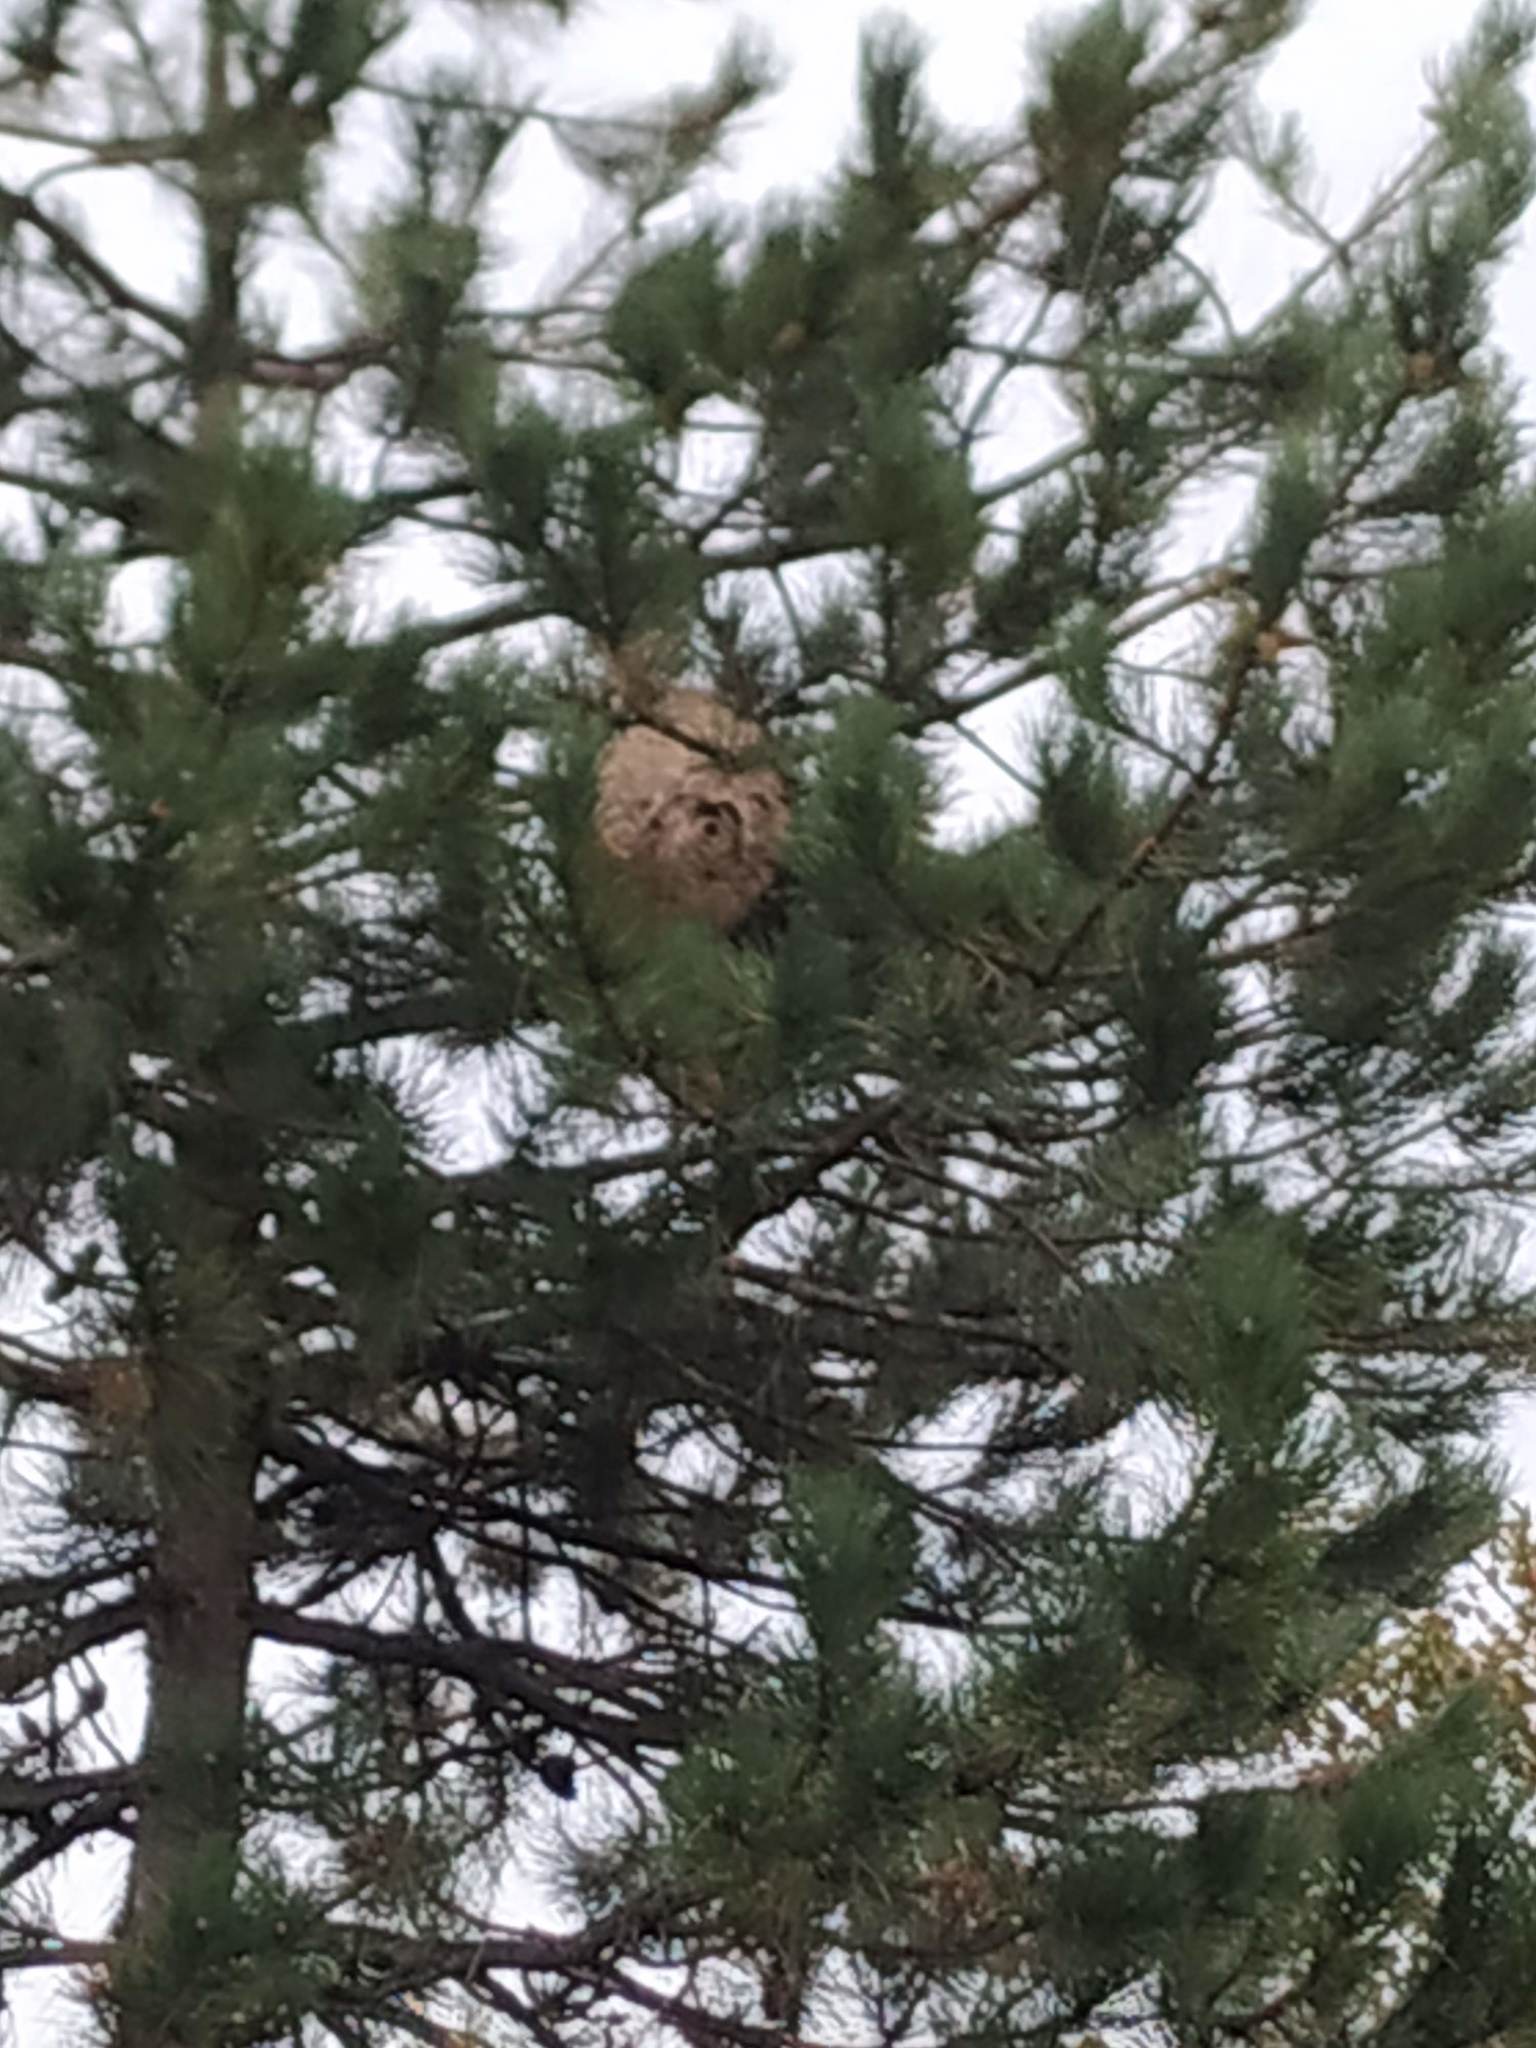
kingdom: Animalia
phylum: Arthropoda
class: Insecta
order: Hymenoptera
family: Vespidae
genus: Vespa
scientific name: Vespa velutina
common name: Asian hornet
